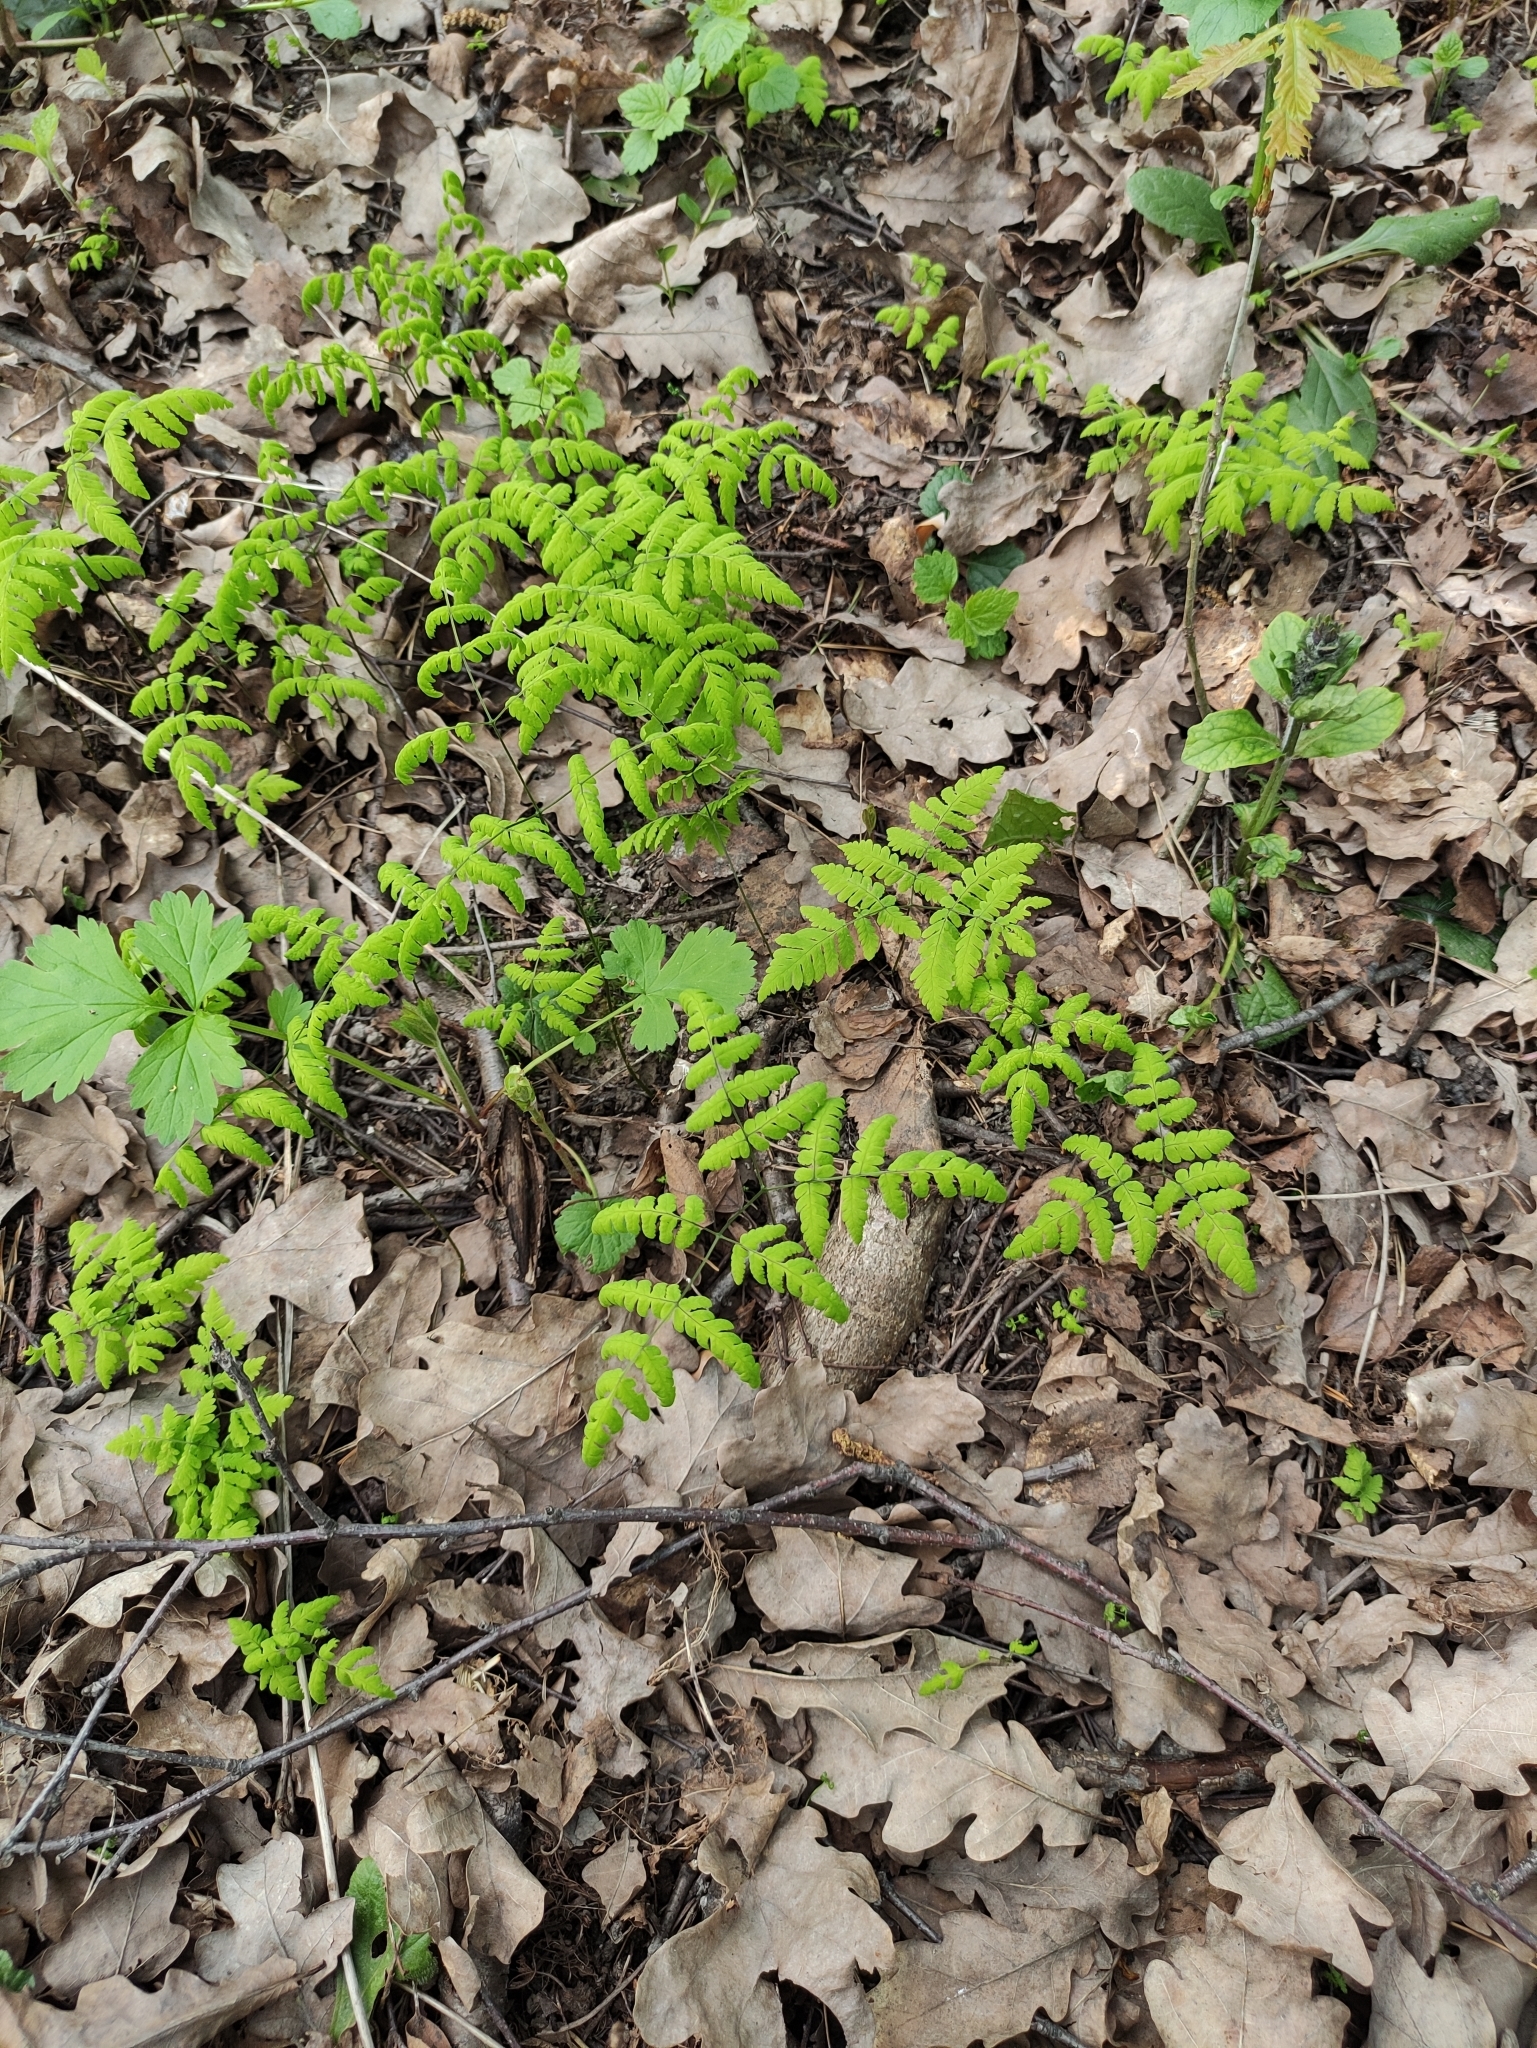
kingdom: Plantae
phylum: Tracheophyta
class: Polypodiopsida
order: Polypodiales
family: Cystopteridaceae
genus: Gymnocarpium
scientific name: Gymnocarpium dryopteris
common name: Oak fern
